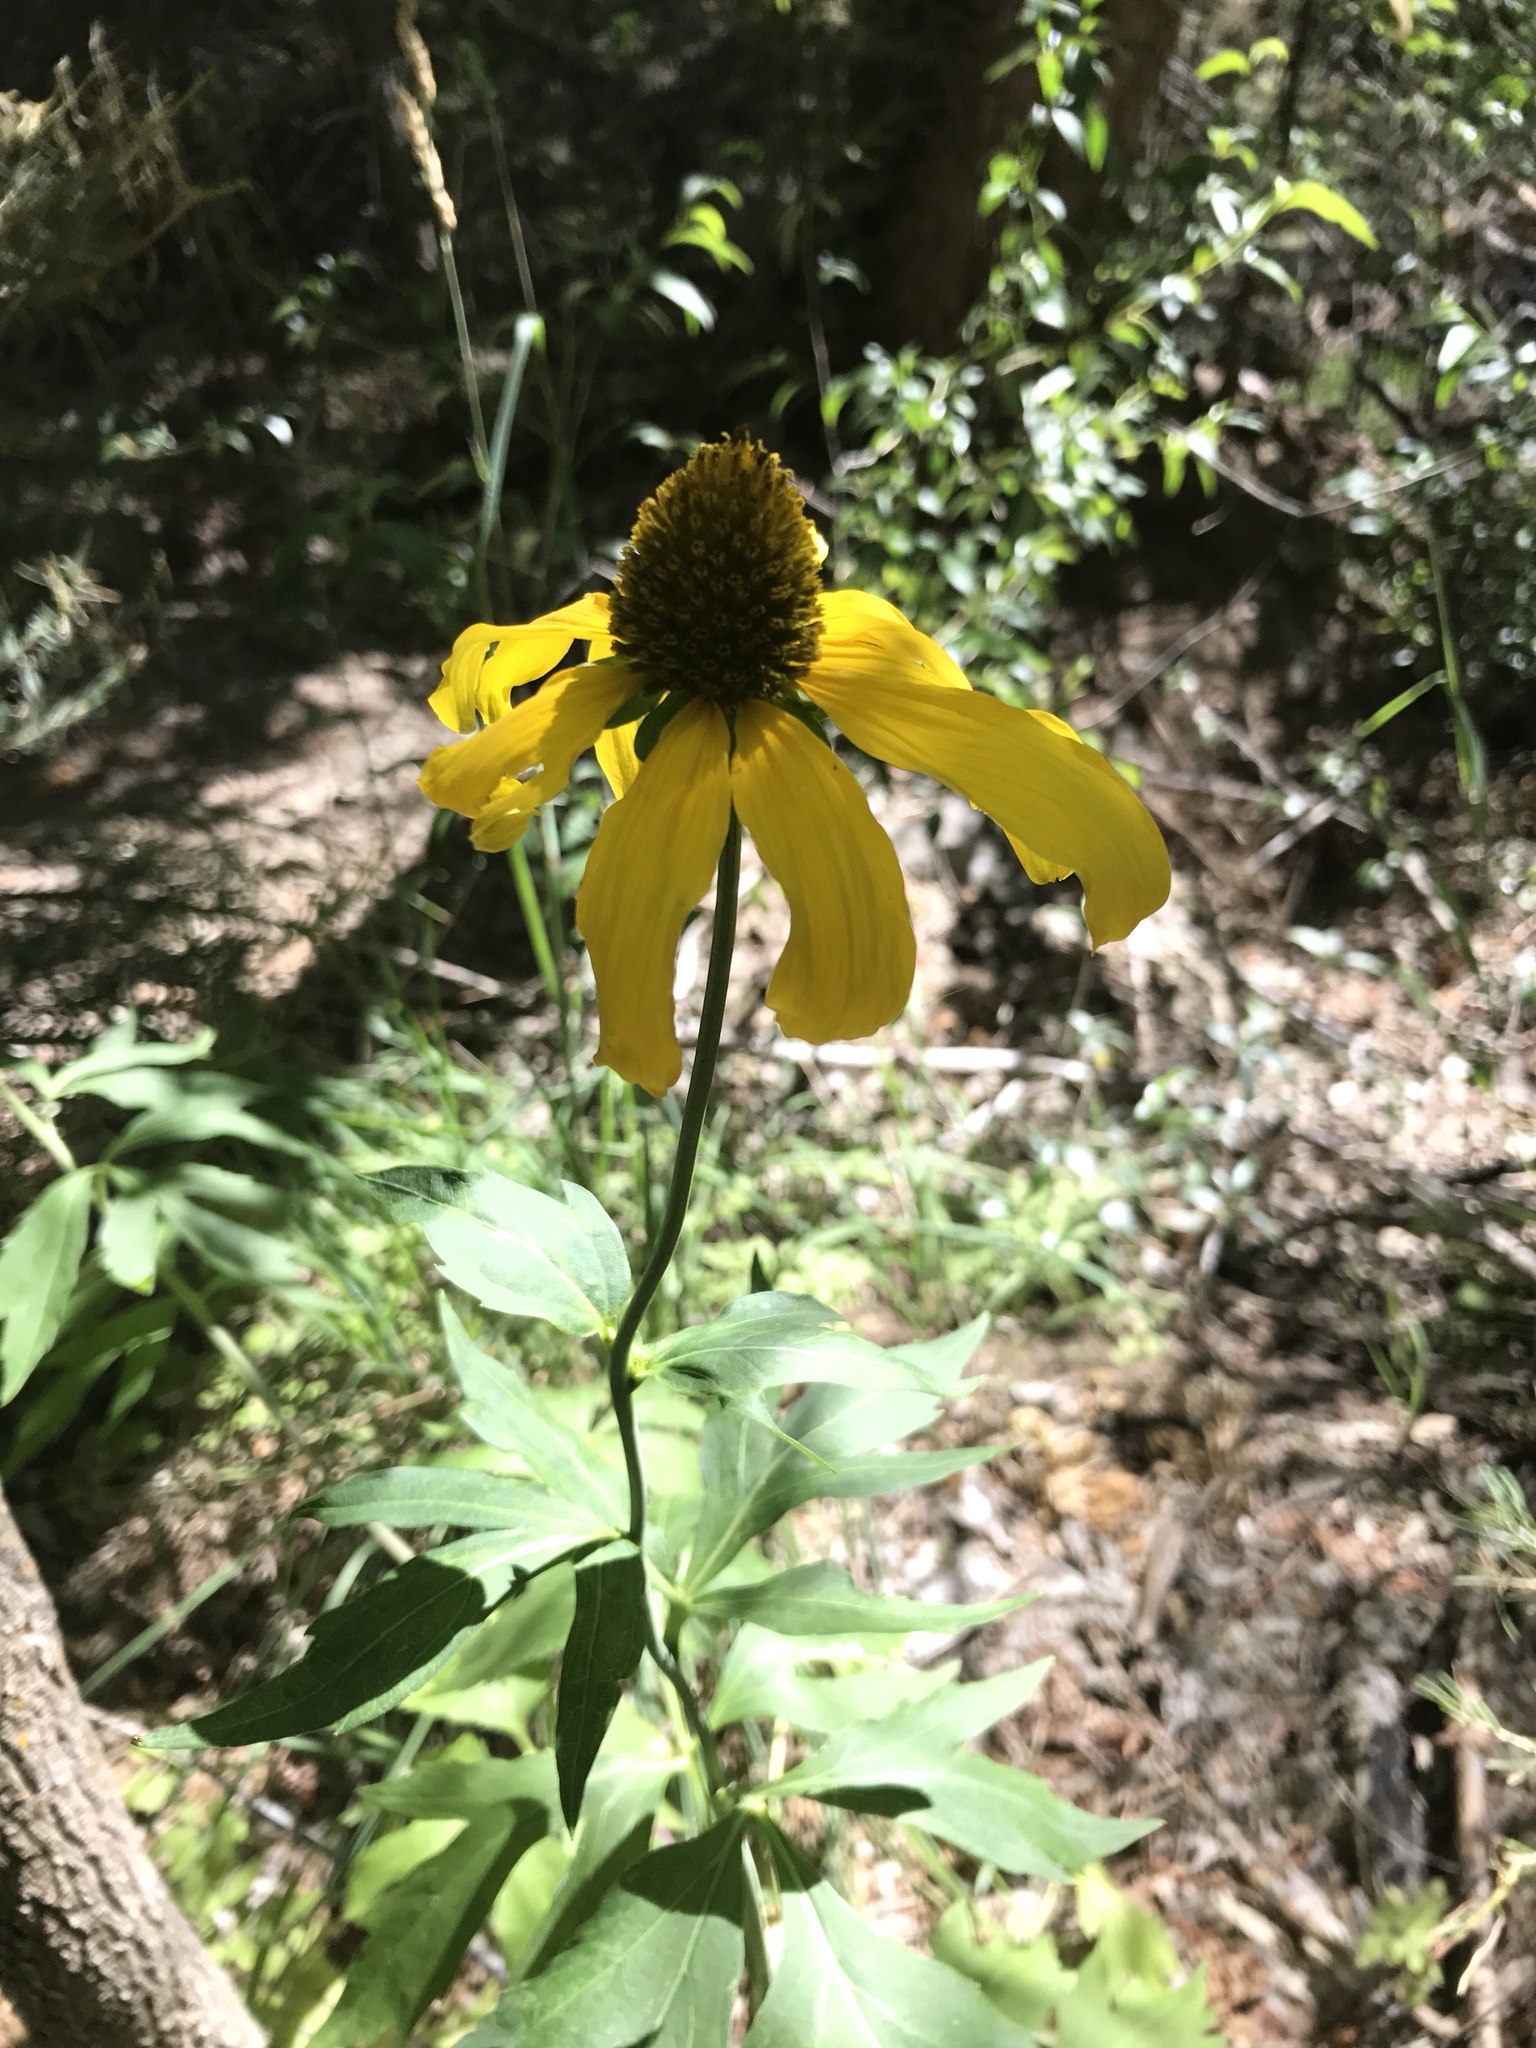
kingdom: Plantae
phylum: Tracheophyta
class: Magnoliopsida
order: Asterales
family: Asteraceae
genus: Rudbeckia
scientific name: Rudbeckia laciniata
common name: Coneflower
